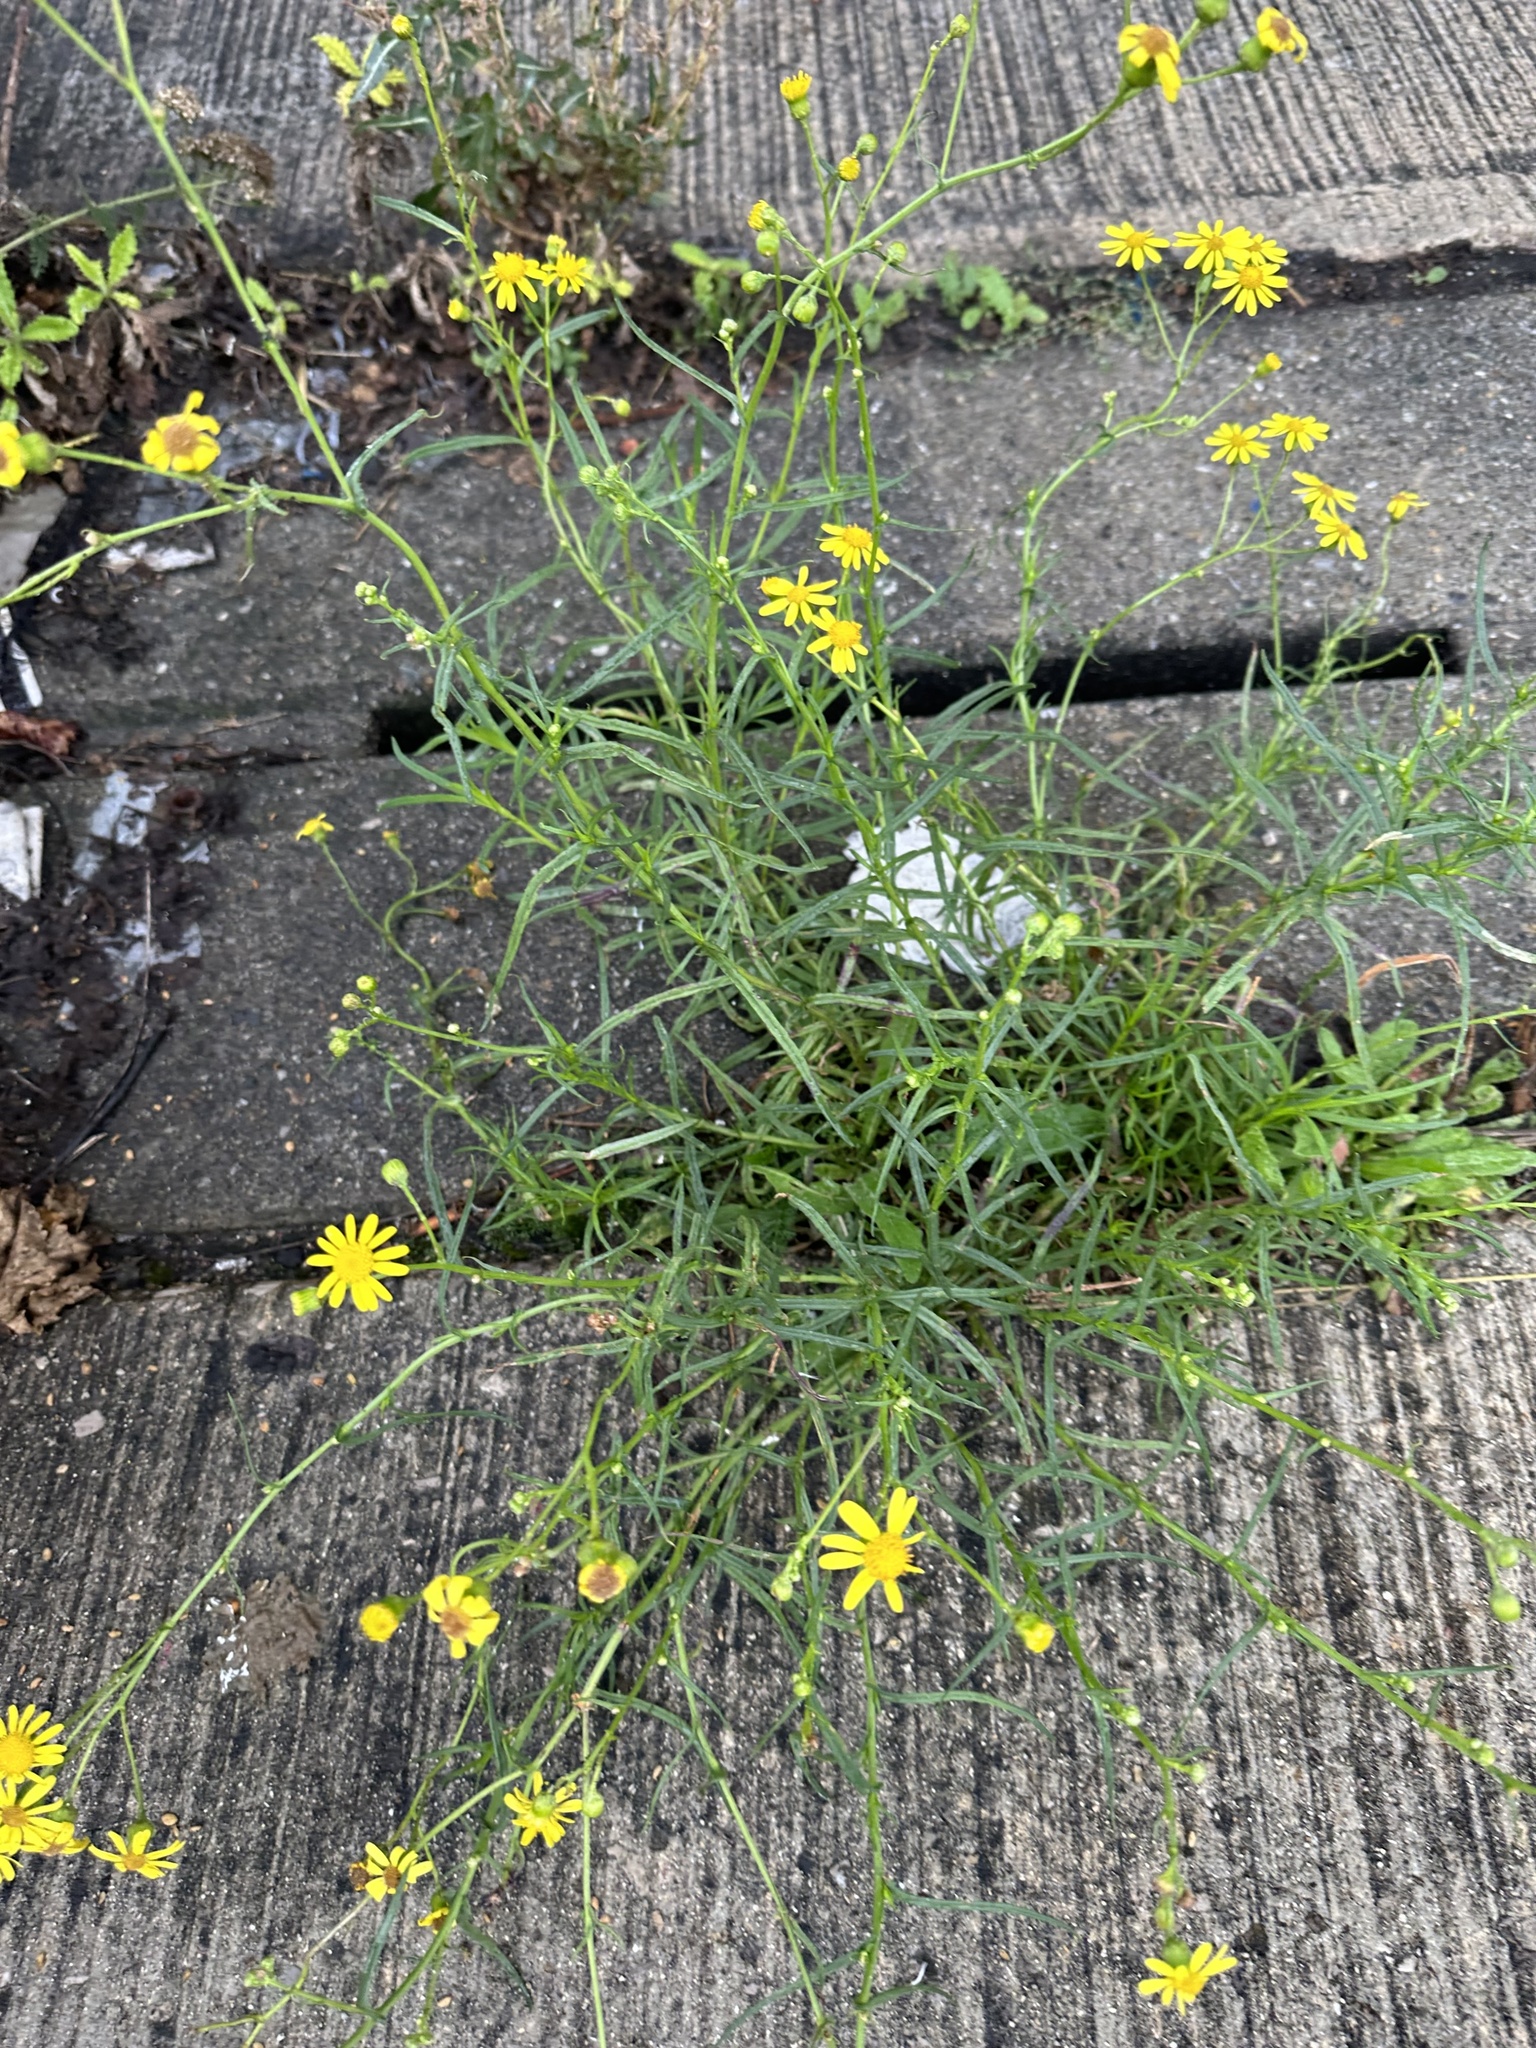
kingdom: Plantae
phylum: Tracheophyta
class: Magnoliopsida
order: Asterales
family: Asteraceae
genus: Senecio
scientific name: Senecio inaequidens
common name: Narrow-leaved ragwort
